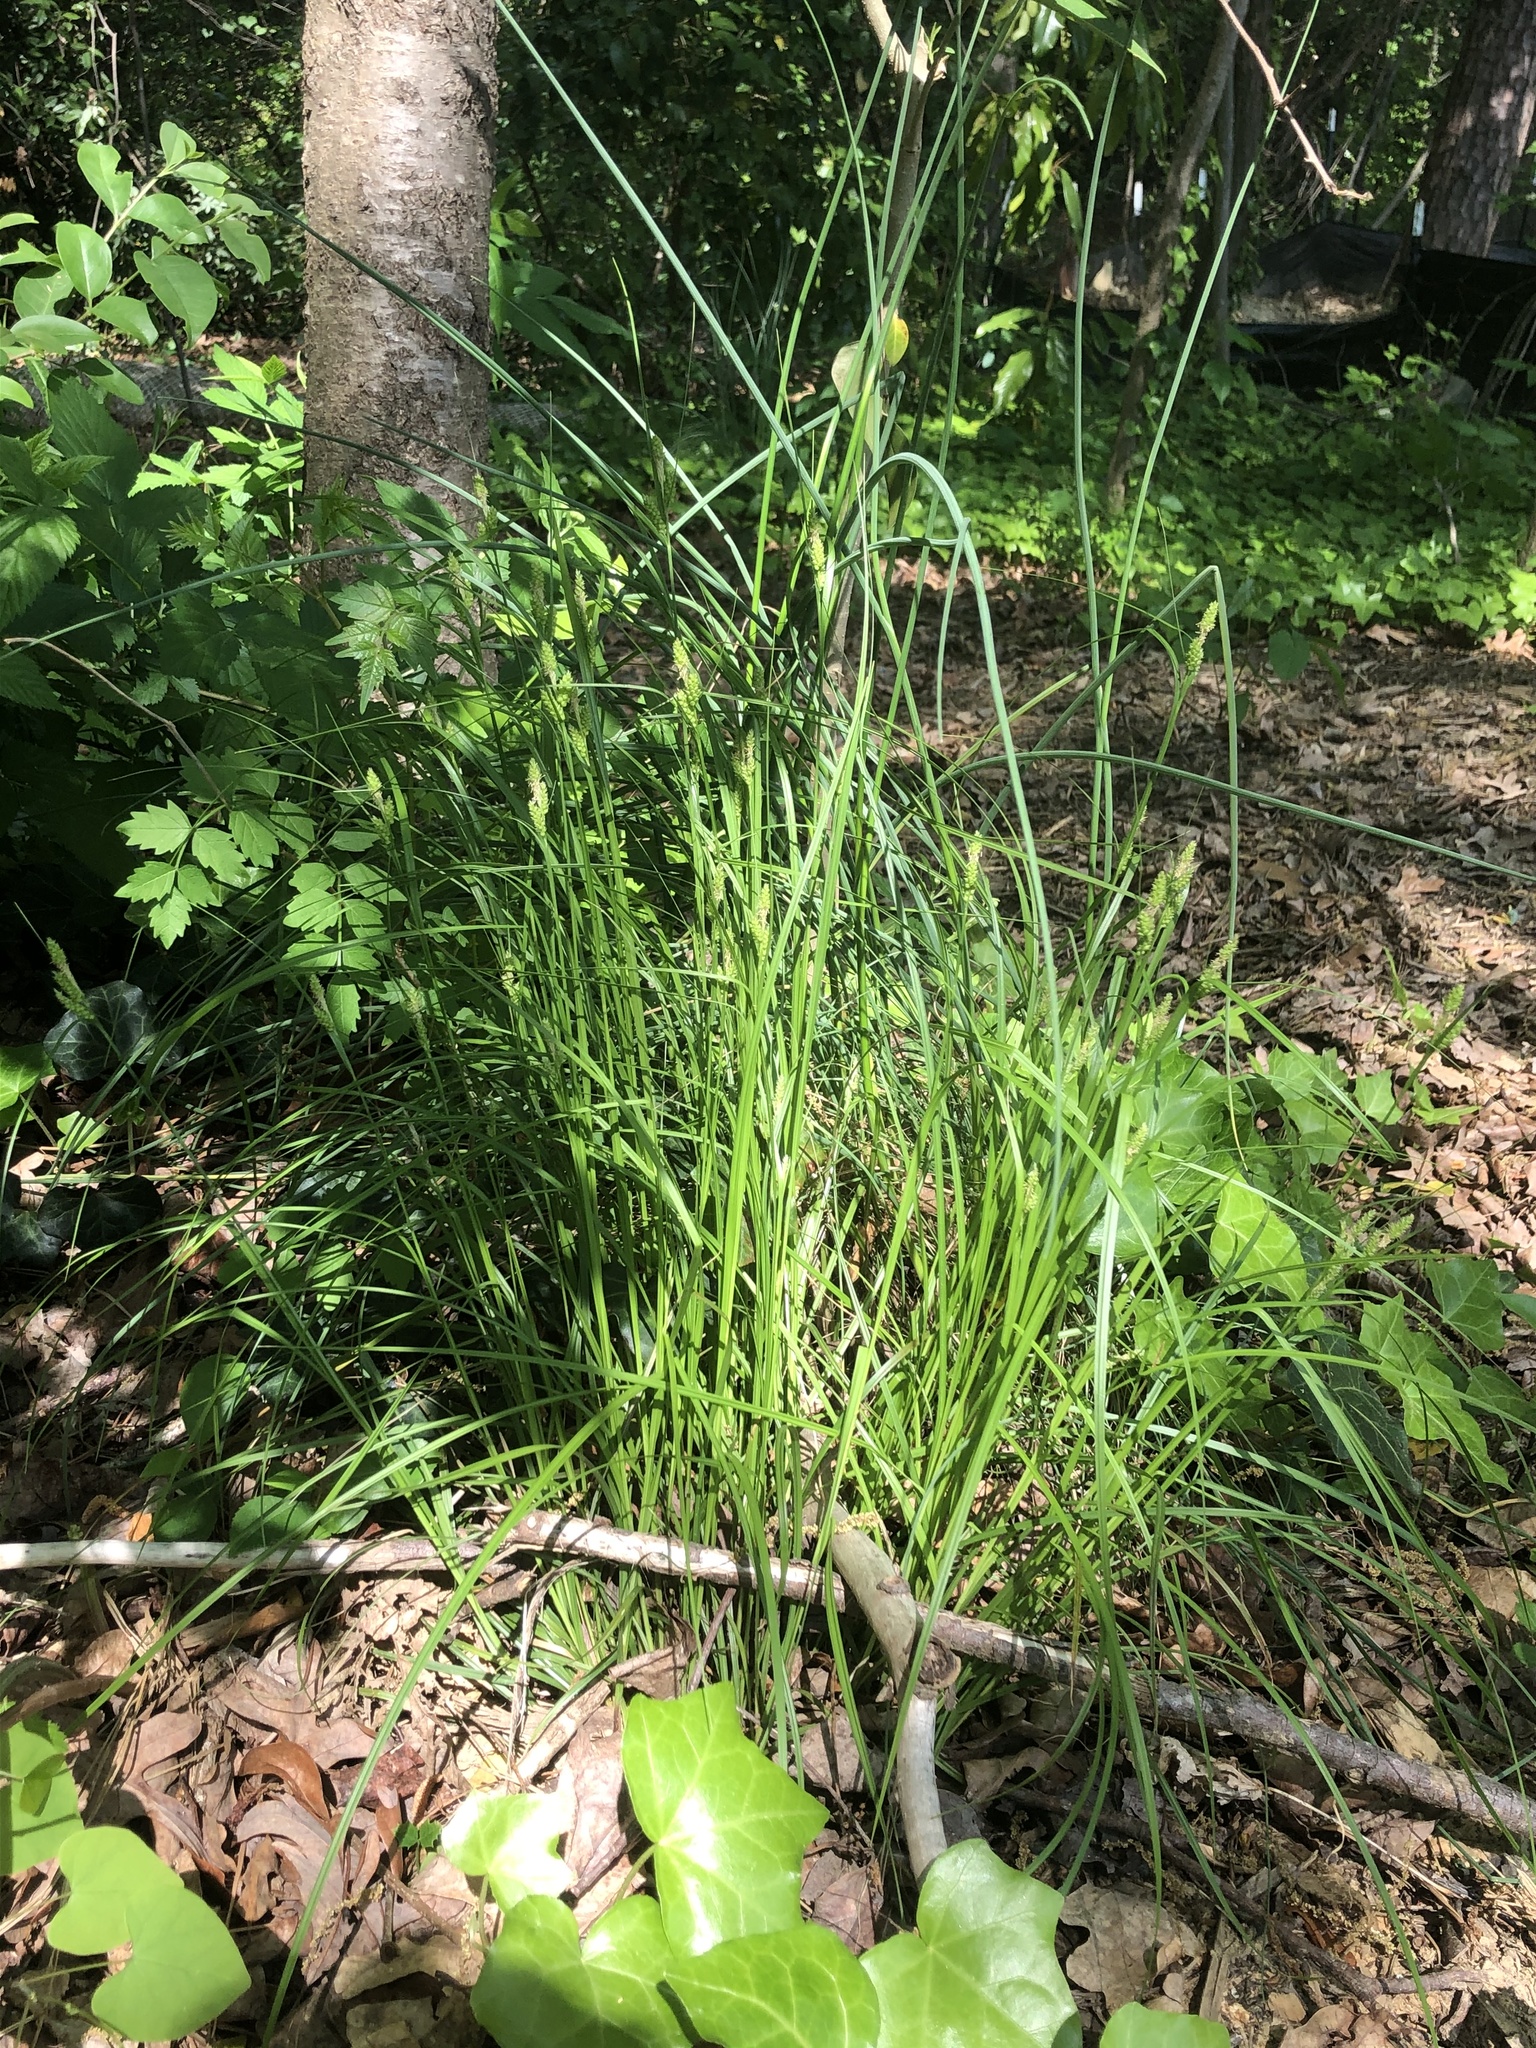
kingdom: Plantae
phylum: Tracheophyta
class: Liliopsida
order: Poales
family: Cyperaceae
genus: Carex
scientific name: Carex caroliniana
